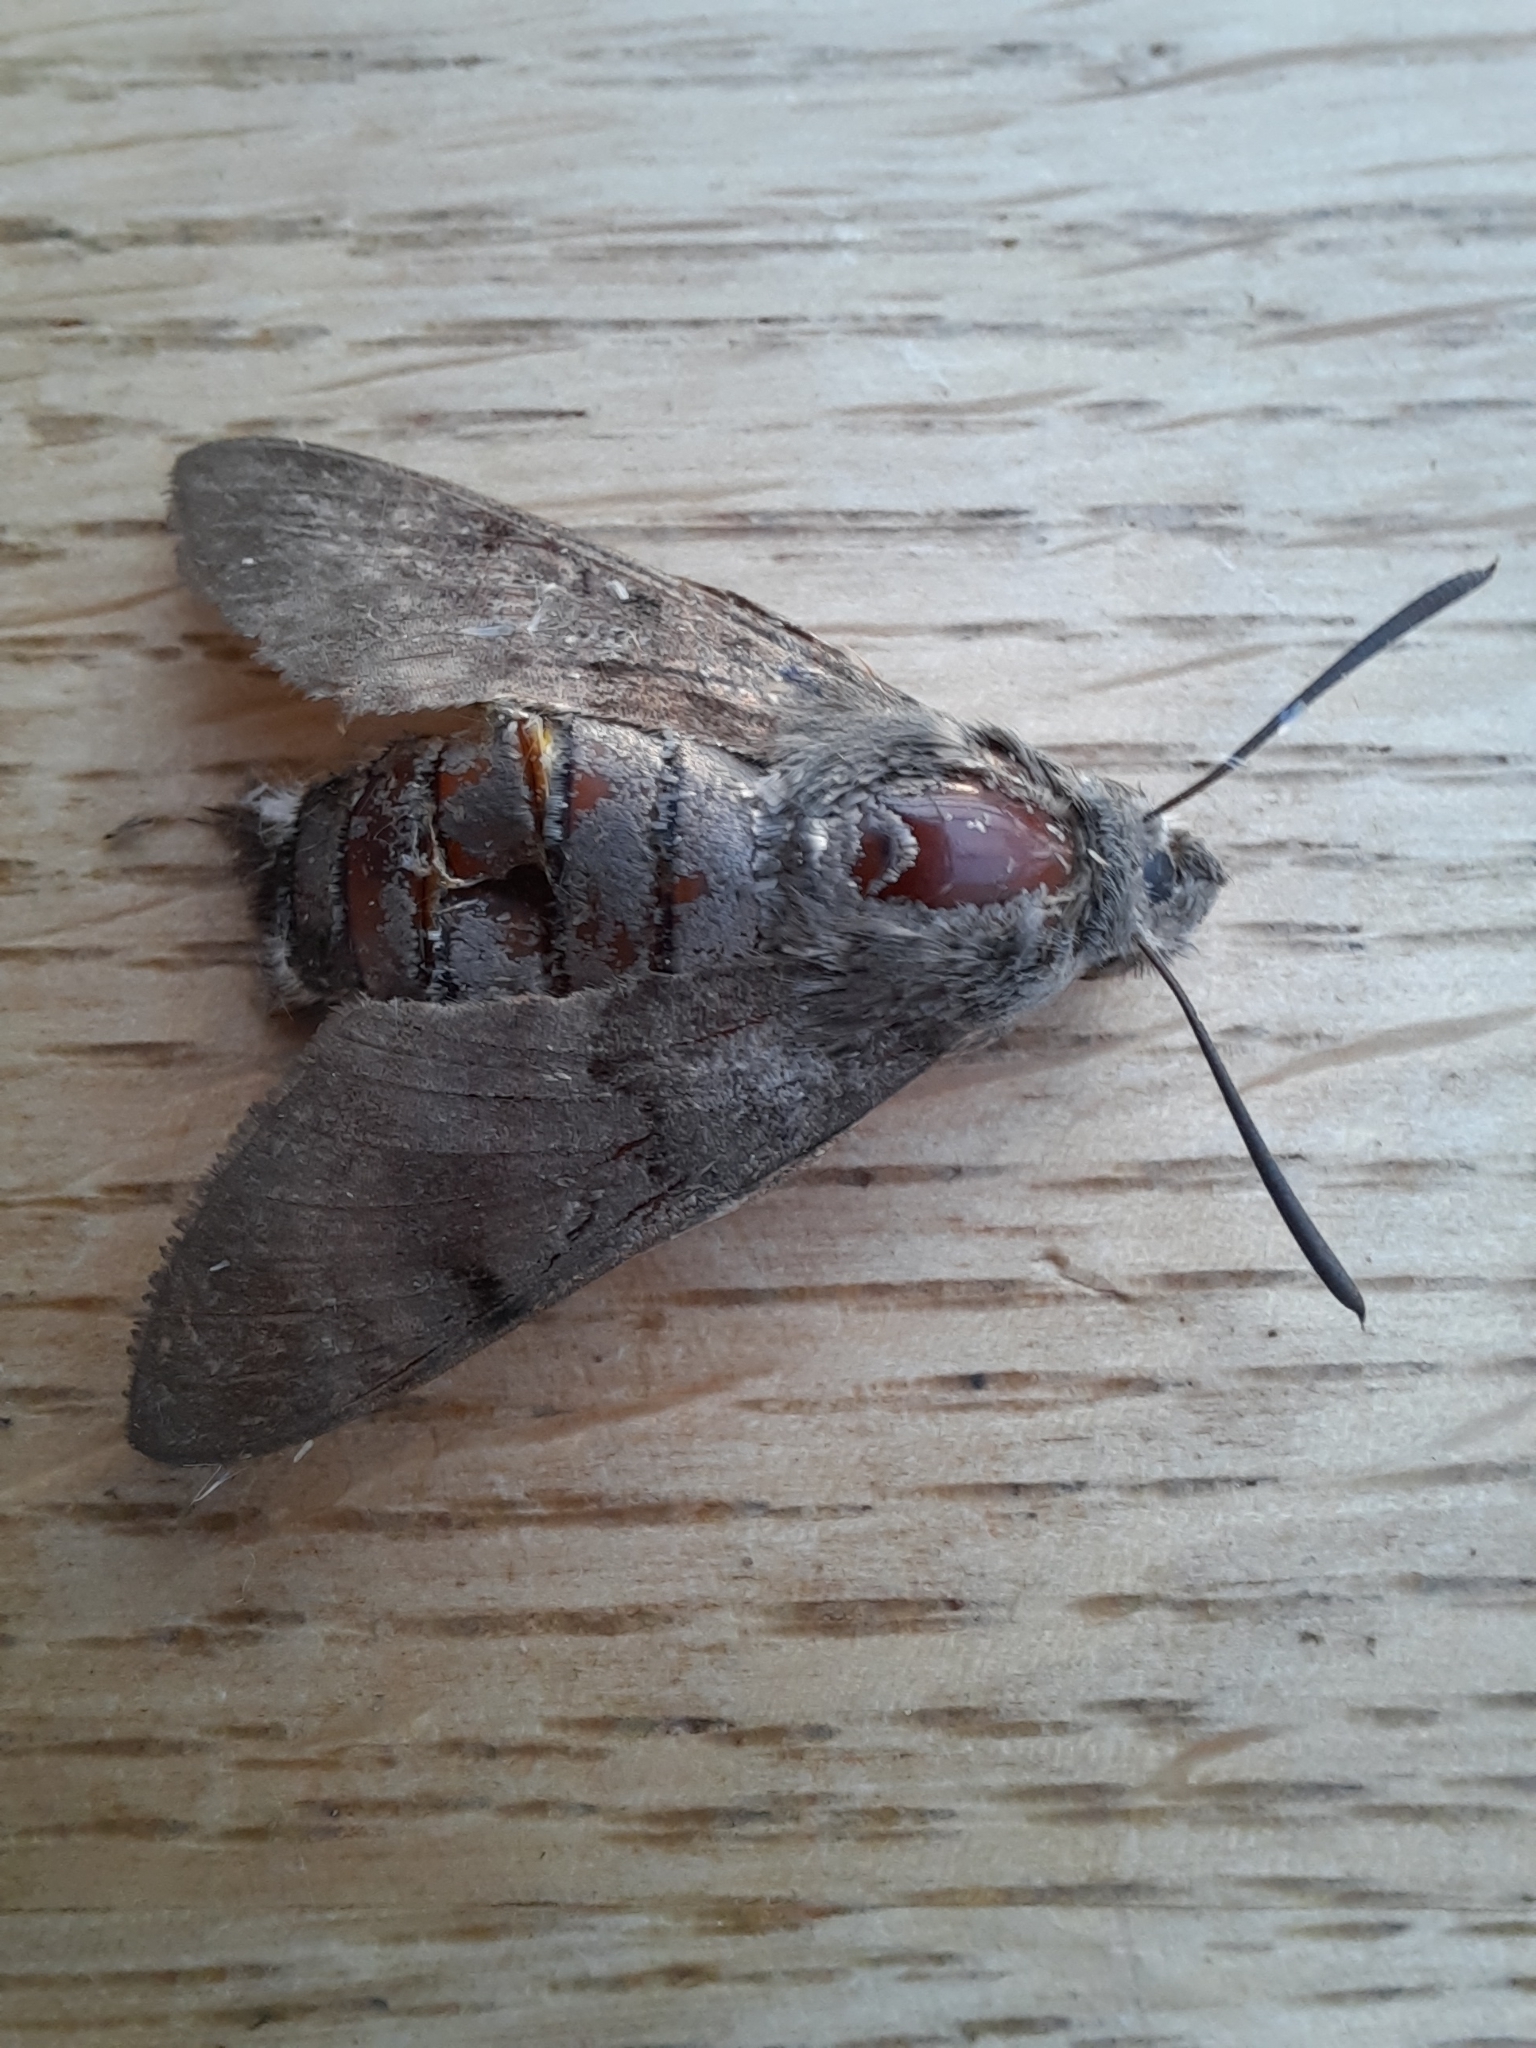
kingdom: Animalia
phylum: Arthropoda
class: Insecta
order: Lepidoptera
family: Sphingidae
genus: Macroglossum
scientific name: Macroglossum stellatarum
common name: Humming-bird hawk-moth
